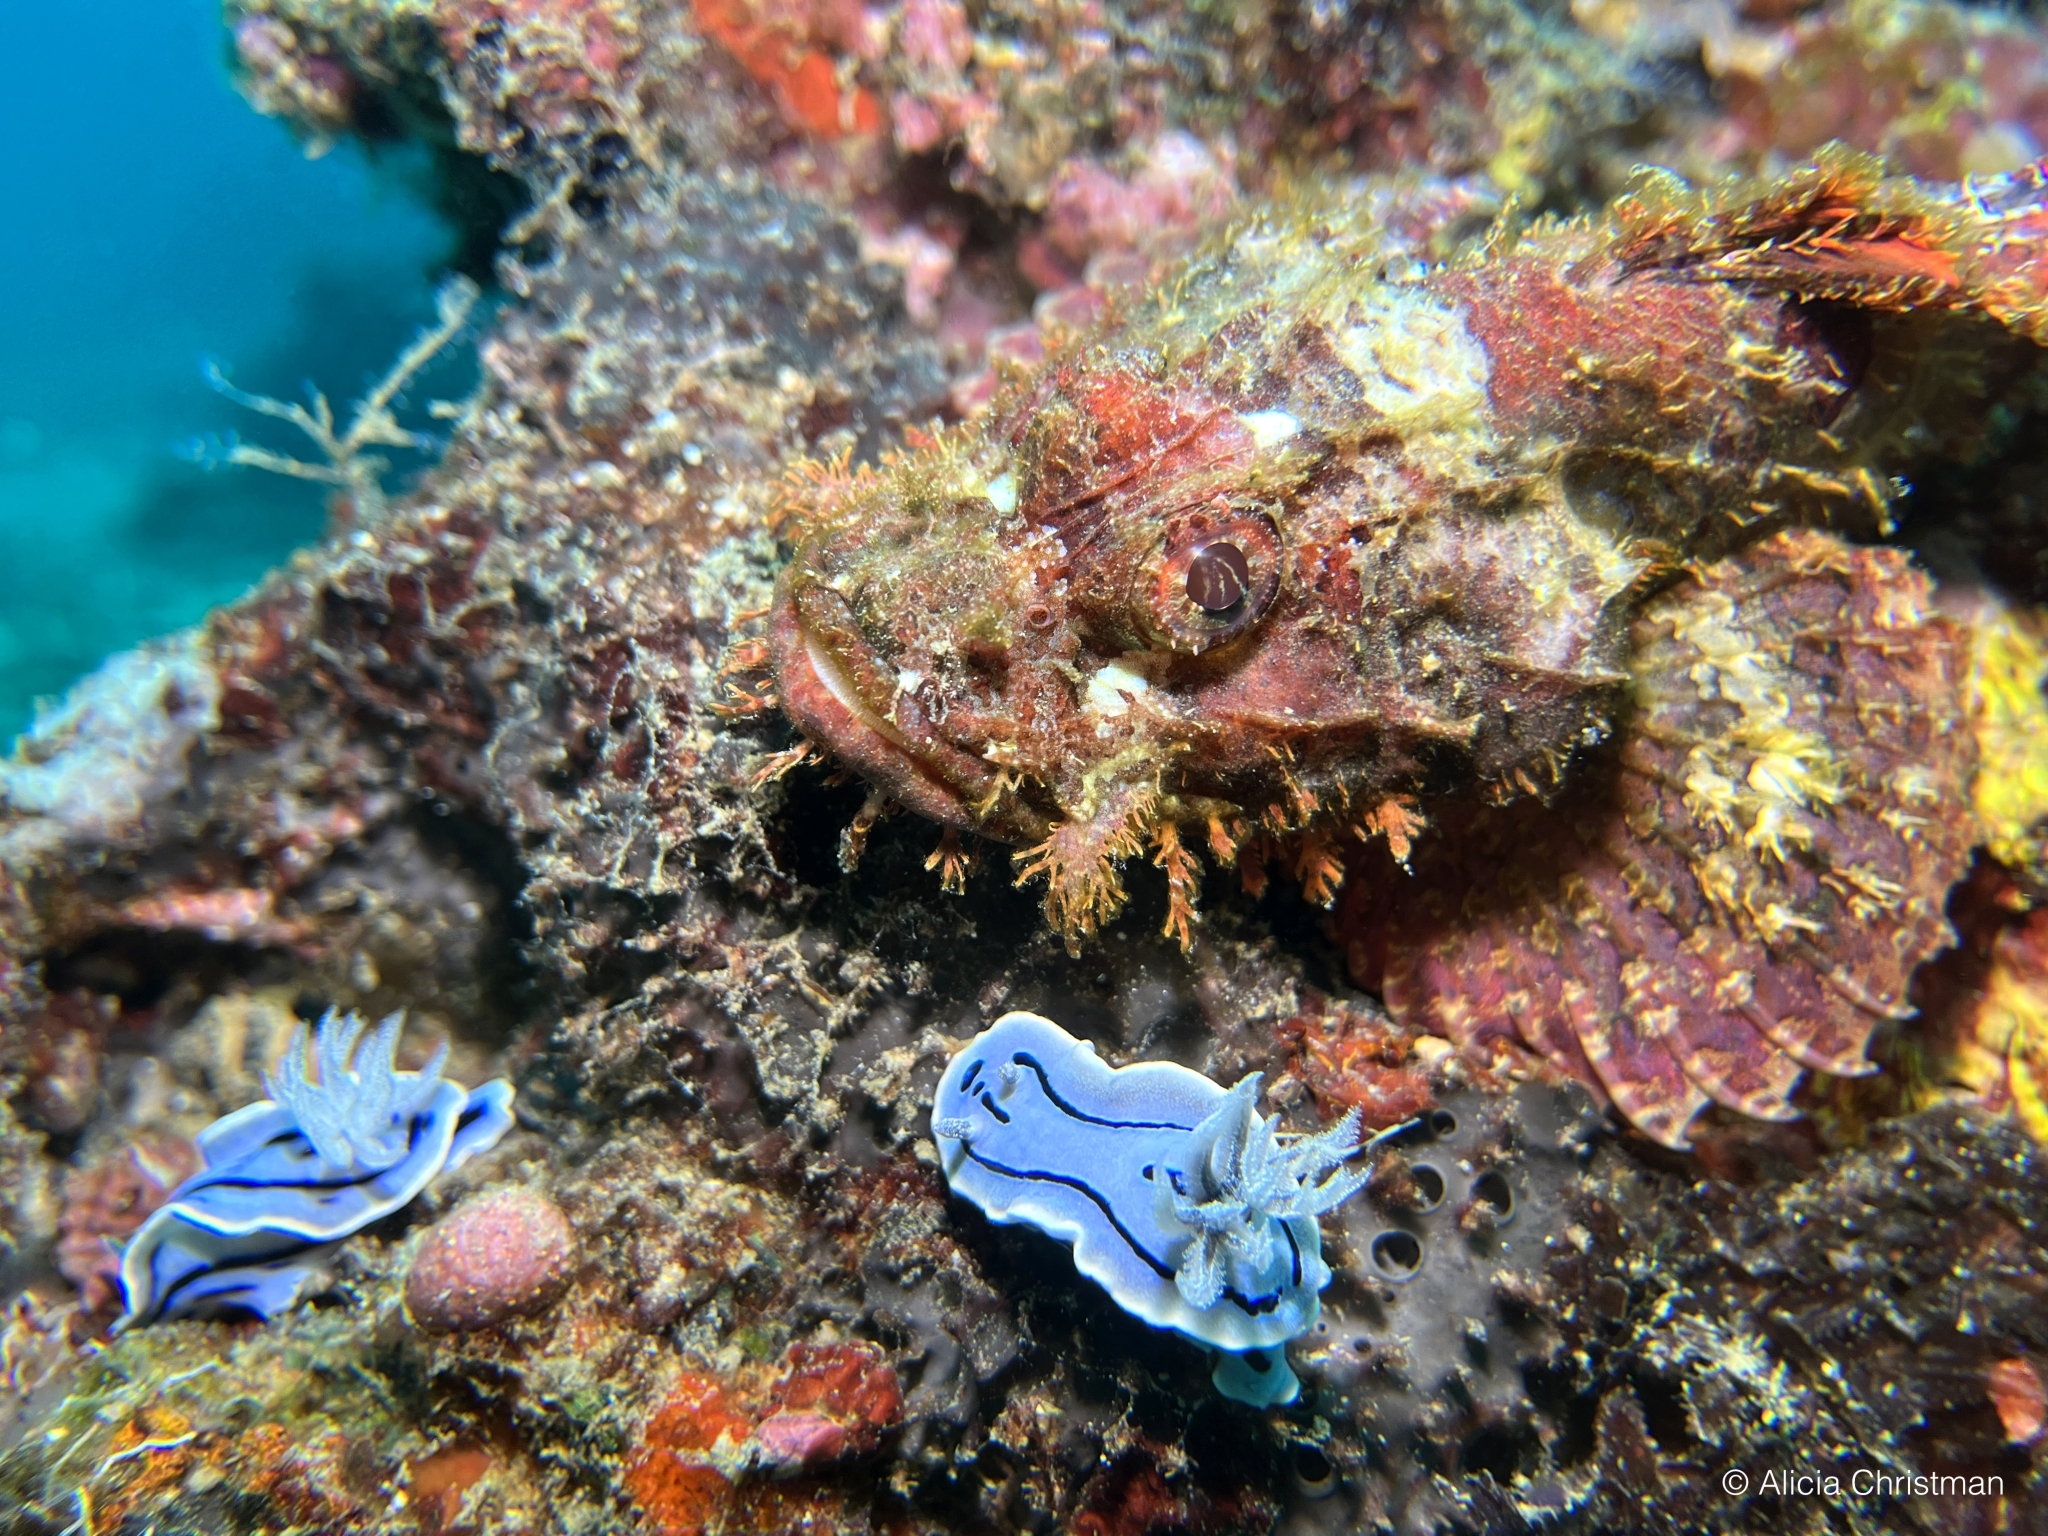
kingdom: Animalia
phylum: Mollusca
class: Gastropoda
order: Nudibranchia
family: Chromodorididae
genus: Chromodoris
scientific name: Chromodoris willani
